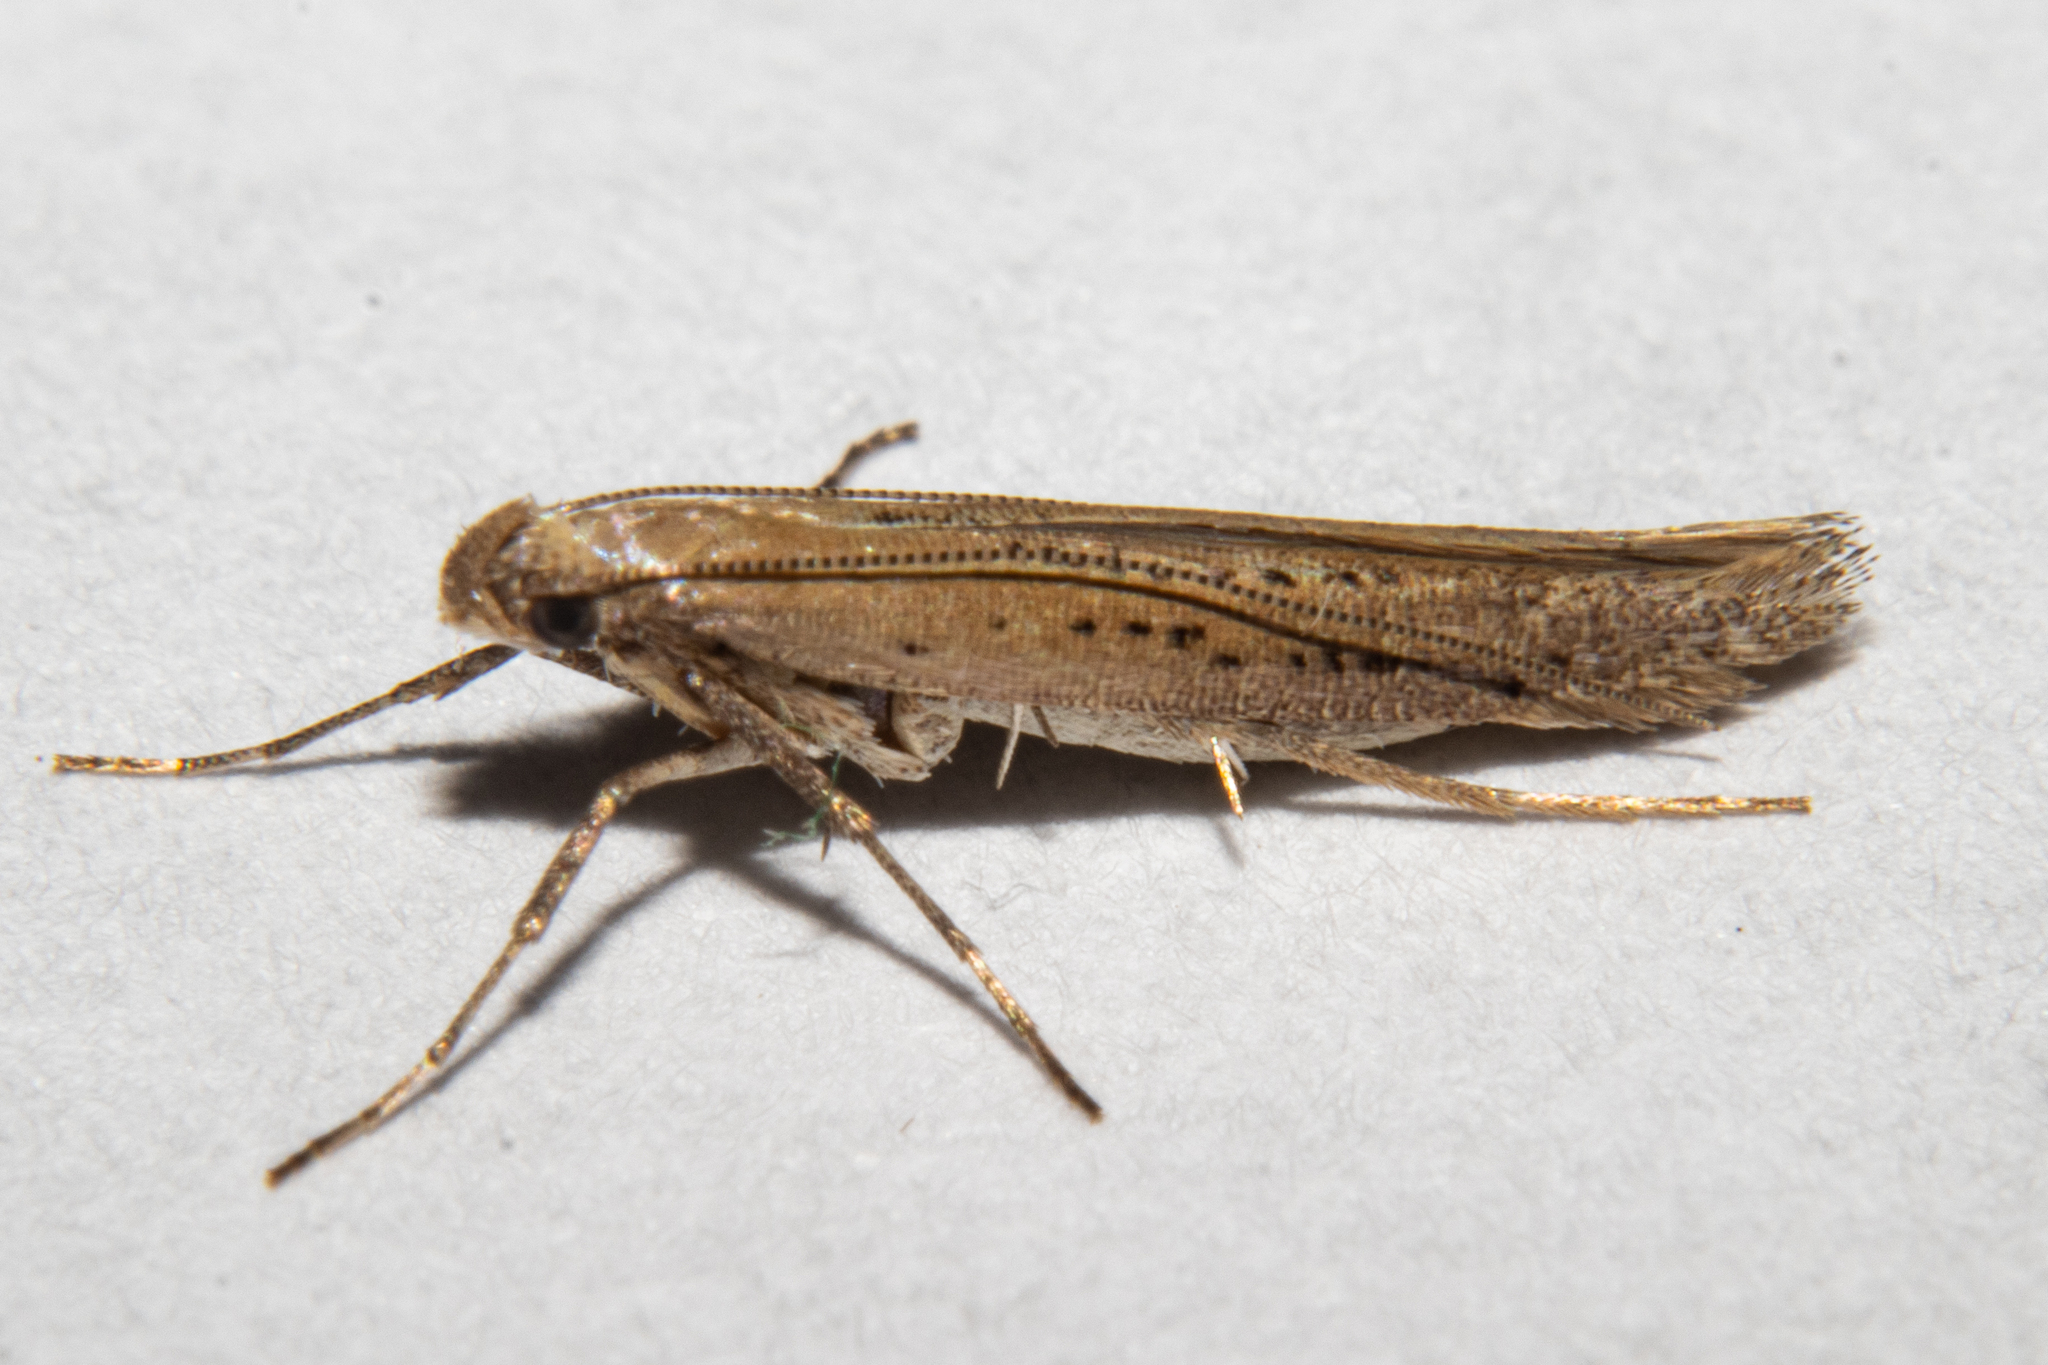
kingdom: Animalia
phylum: Arthropoda
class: Insecta
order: Lepidoptera
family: Gracillariidae
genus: Caloptilia
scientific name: Caloptilia elaeas
